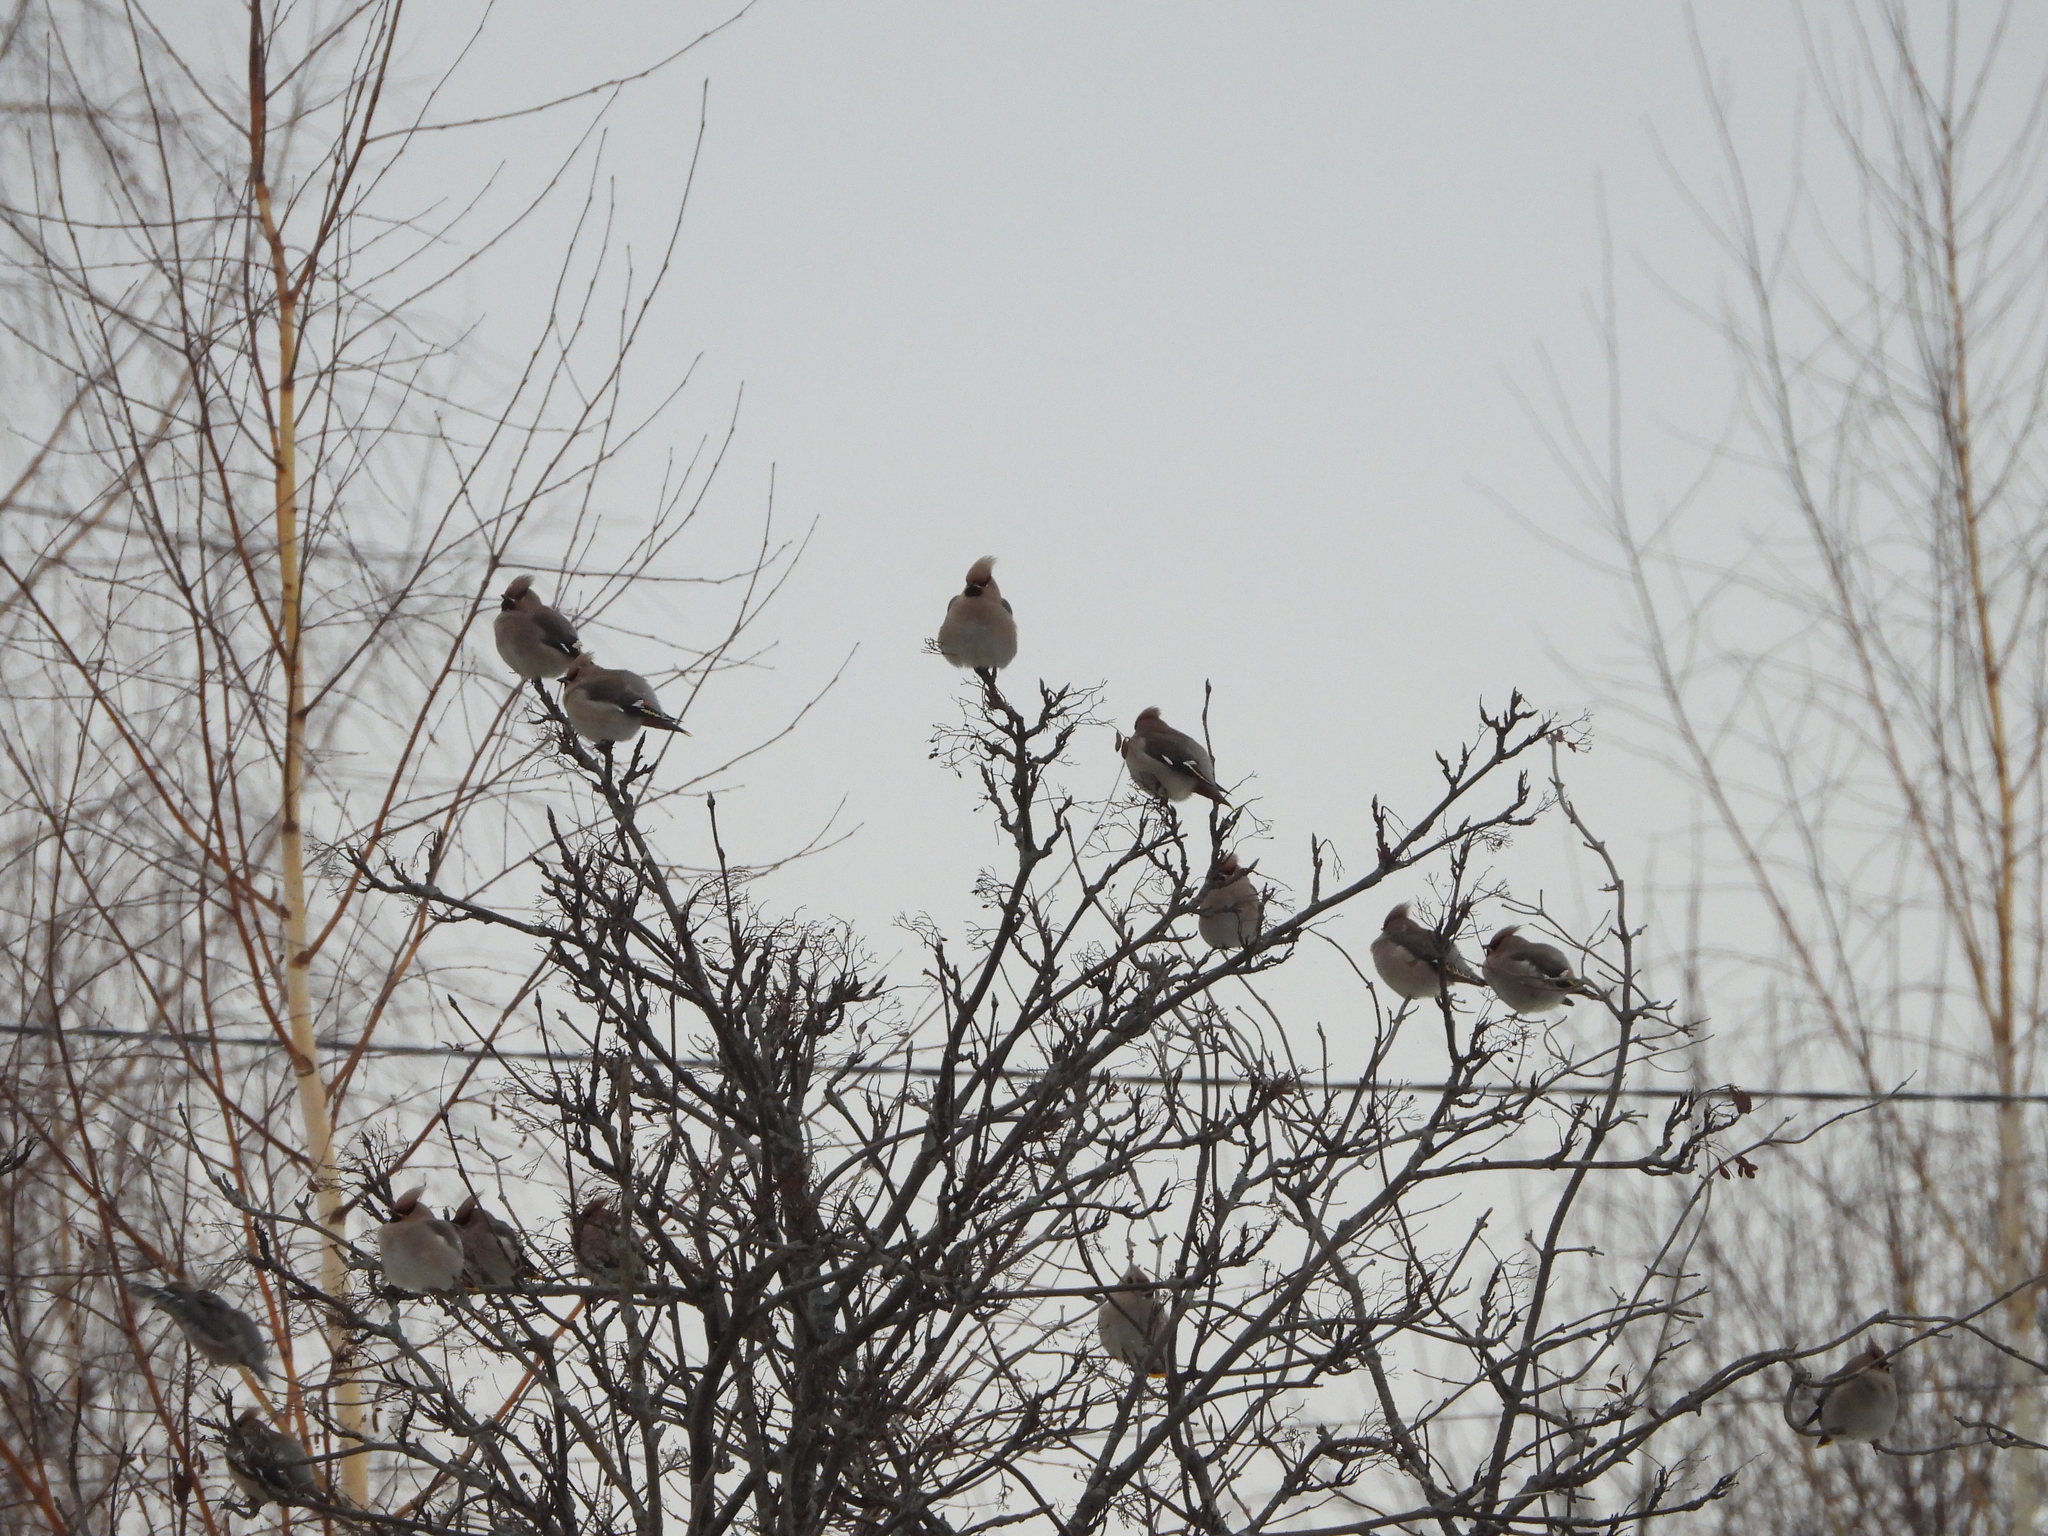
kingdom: Animalia
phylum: Chordata
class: Aves
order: Passeriformes
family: Bombycillidae
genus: Bombycilla
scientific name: Bombycilla garrulus
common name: Bohemian waxwing
